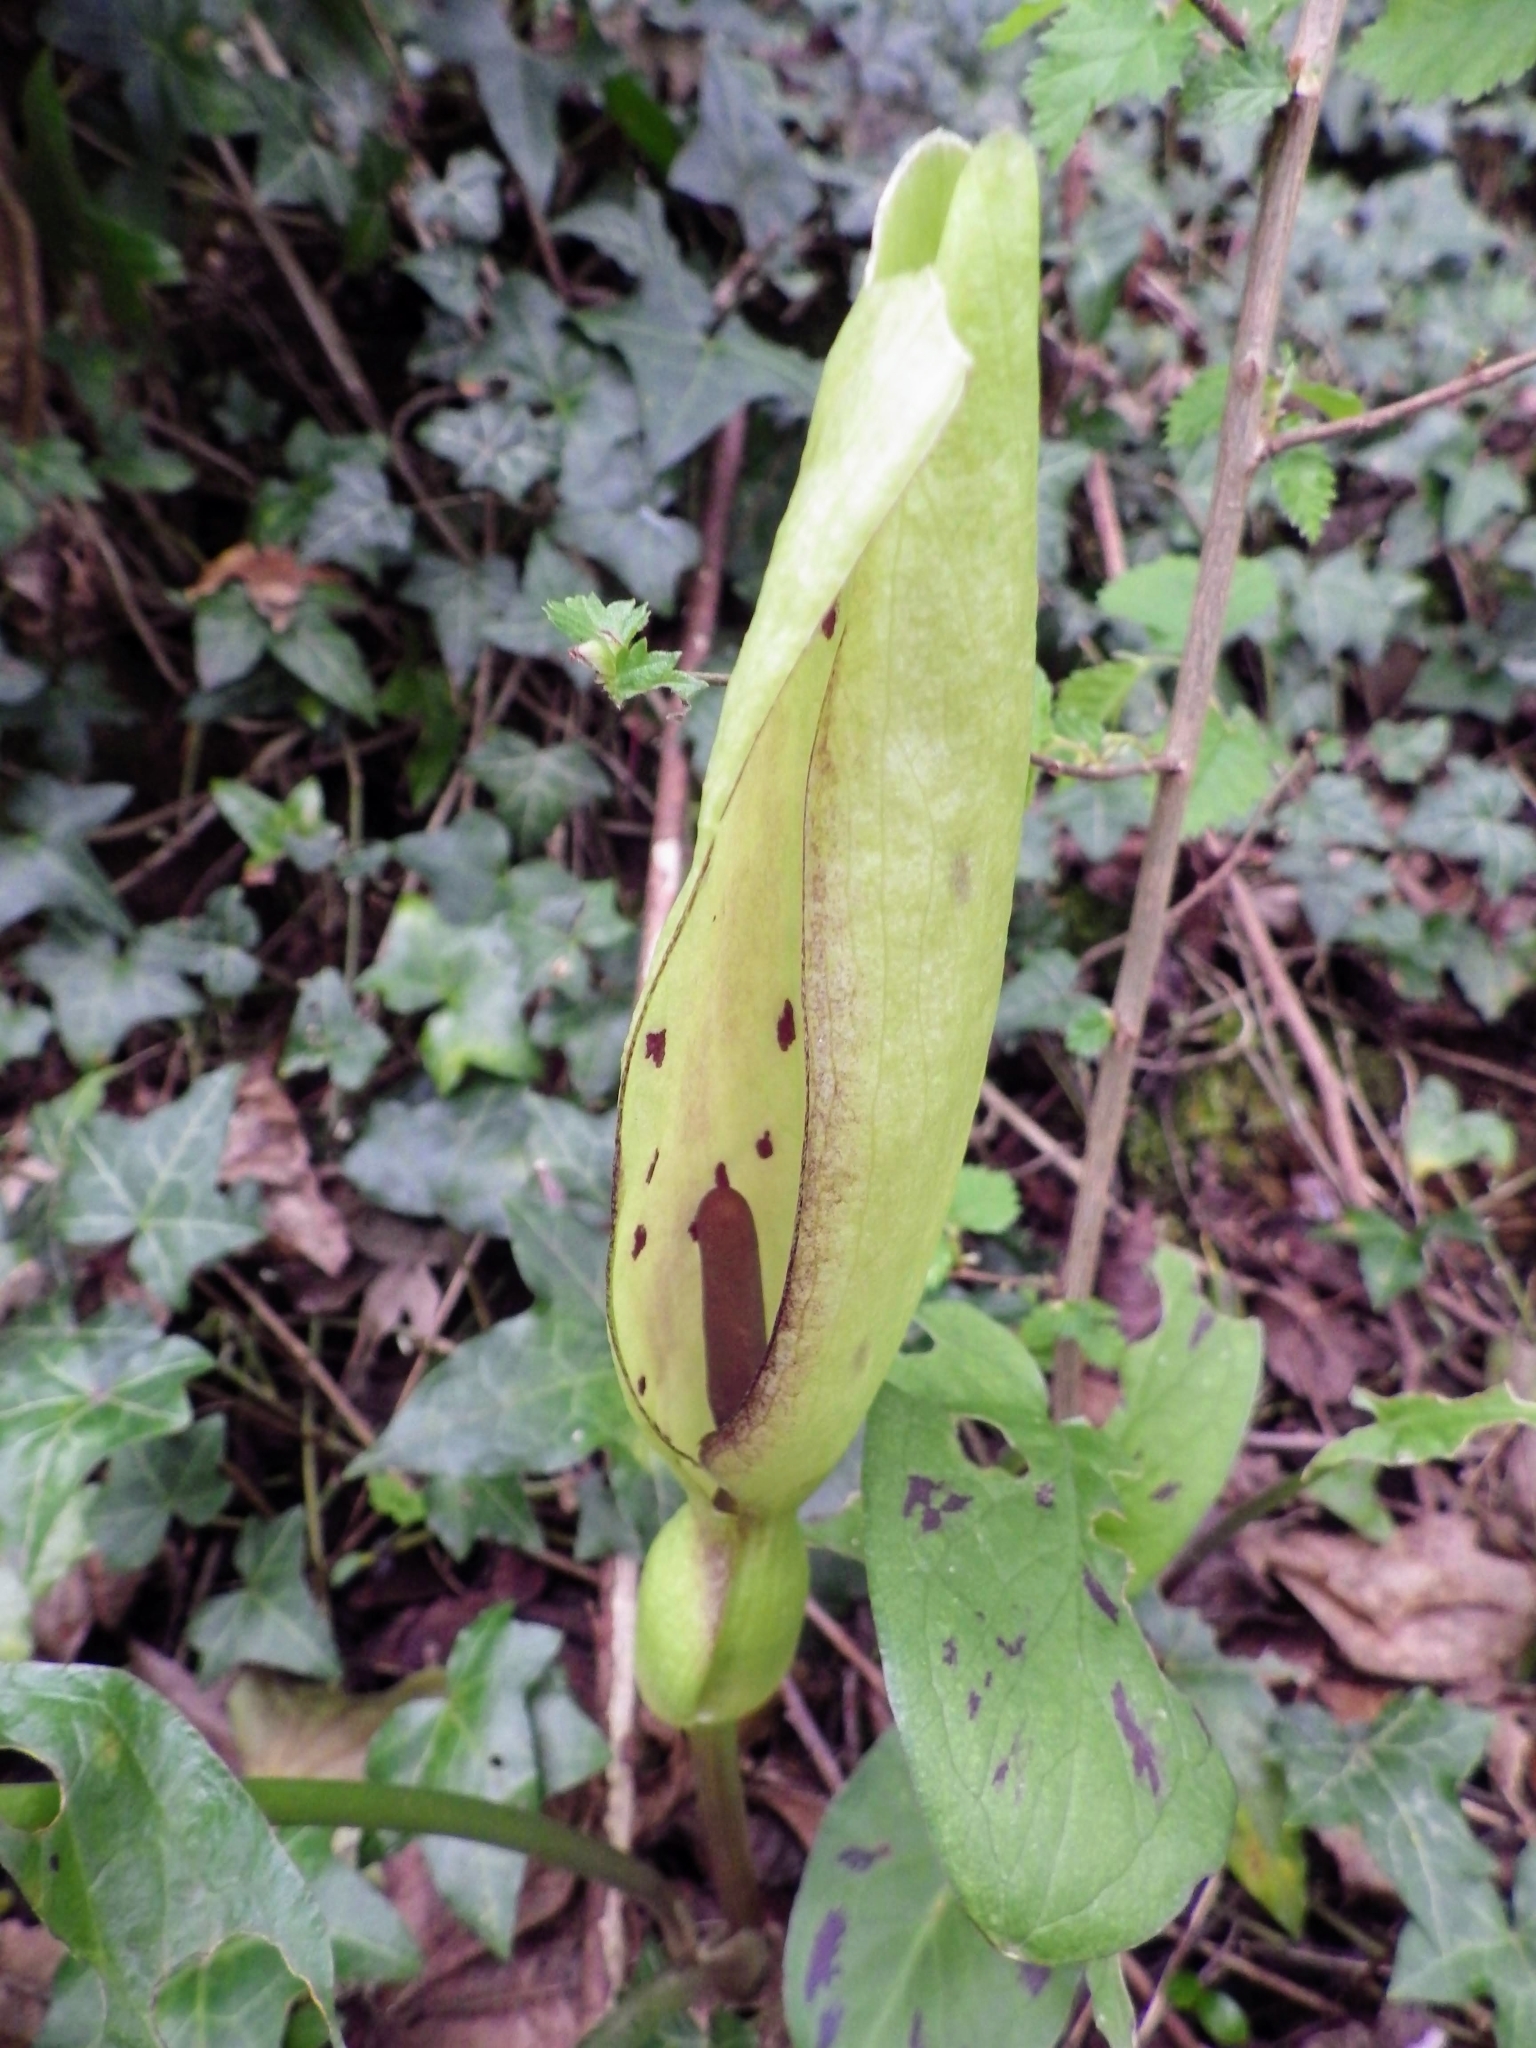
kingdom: Plantae
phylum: Tracheophyta
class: Liliopsida
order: Alismatales
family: Araceae
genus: Arum
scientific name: Arum maculatum
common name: Lords-and-ladies
